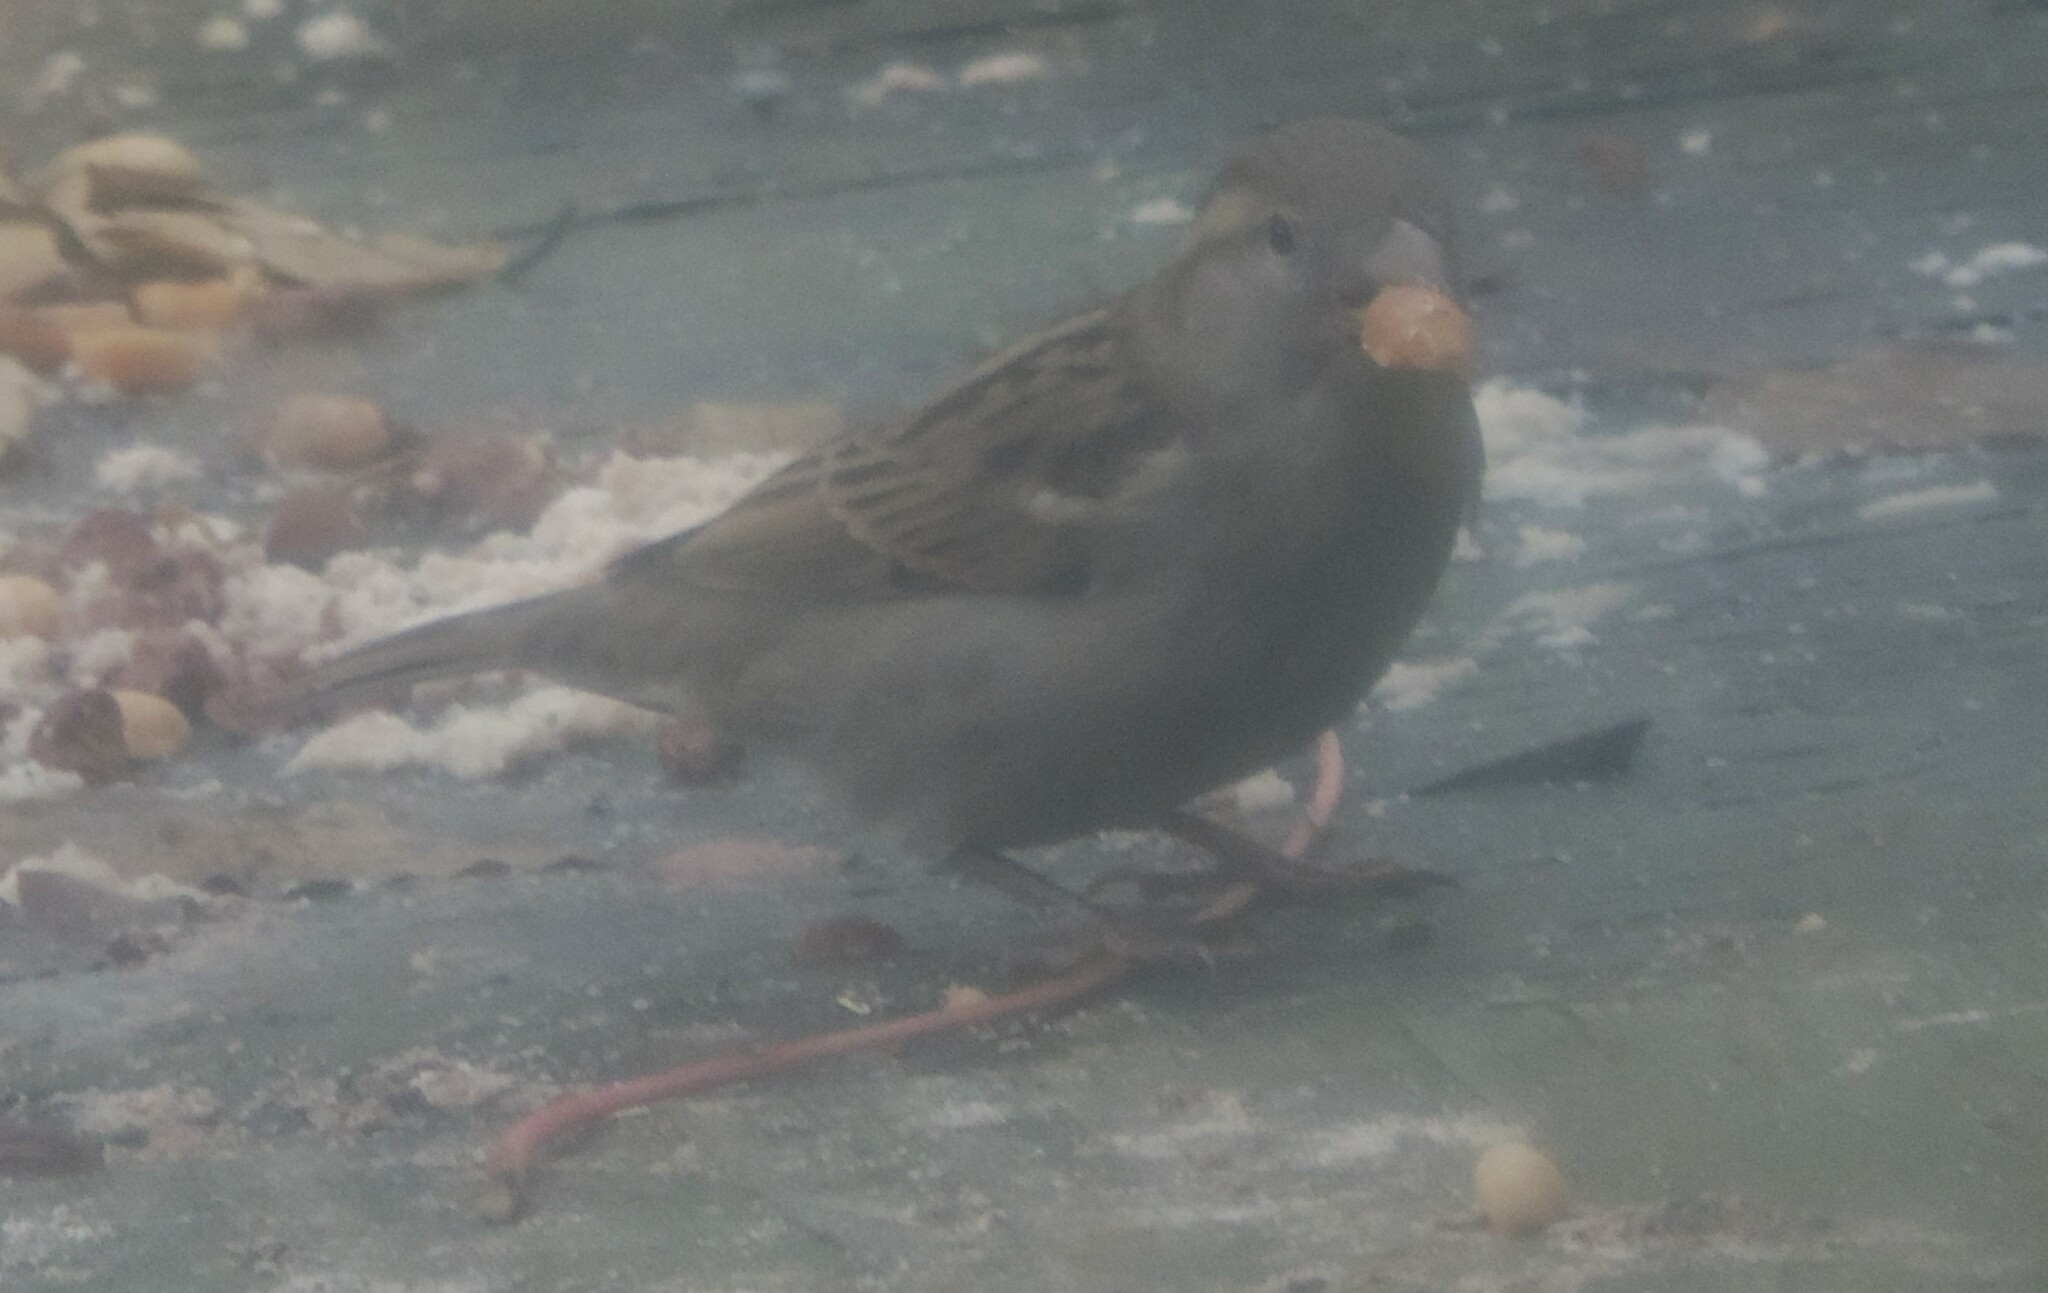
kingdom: Animalia
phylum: Chordata
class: Aves
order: Passeriformes
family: Passeridae
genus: Passer
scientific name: Passer domesticus
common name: House sparrow
